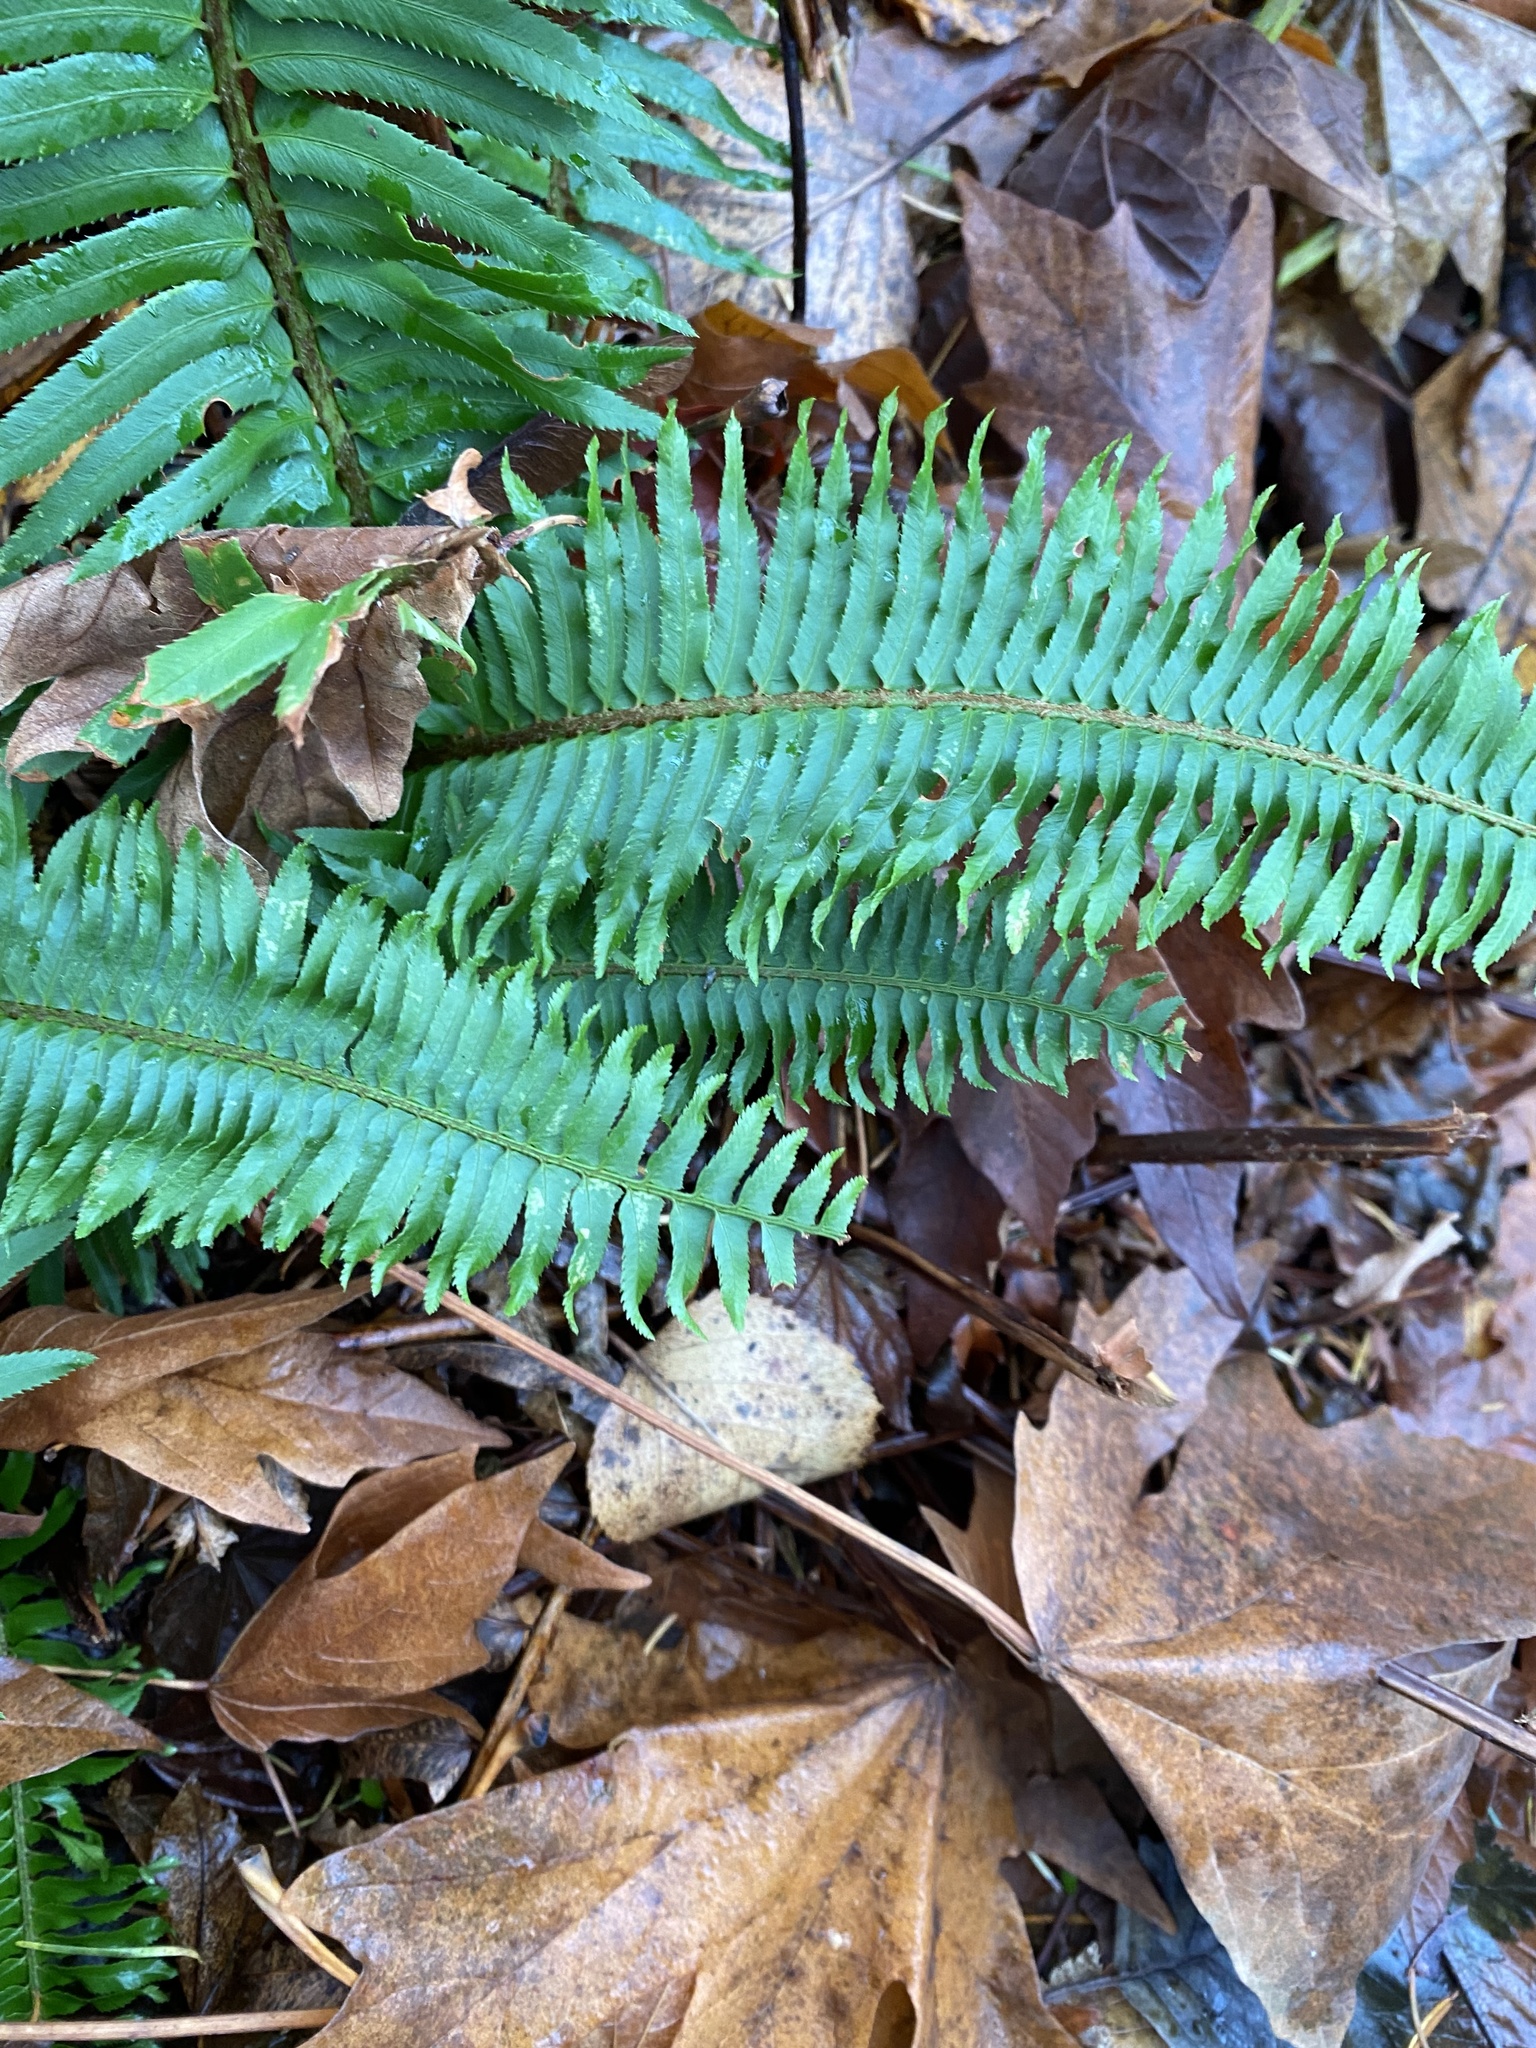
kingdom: Plantae
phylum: Tracheophyta
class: Polypodiopsida
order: Polypodiales
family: Dryopteridaceae
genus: Polystichum
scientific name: Polystichum munitum
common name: Western sword-fern
